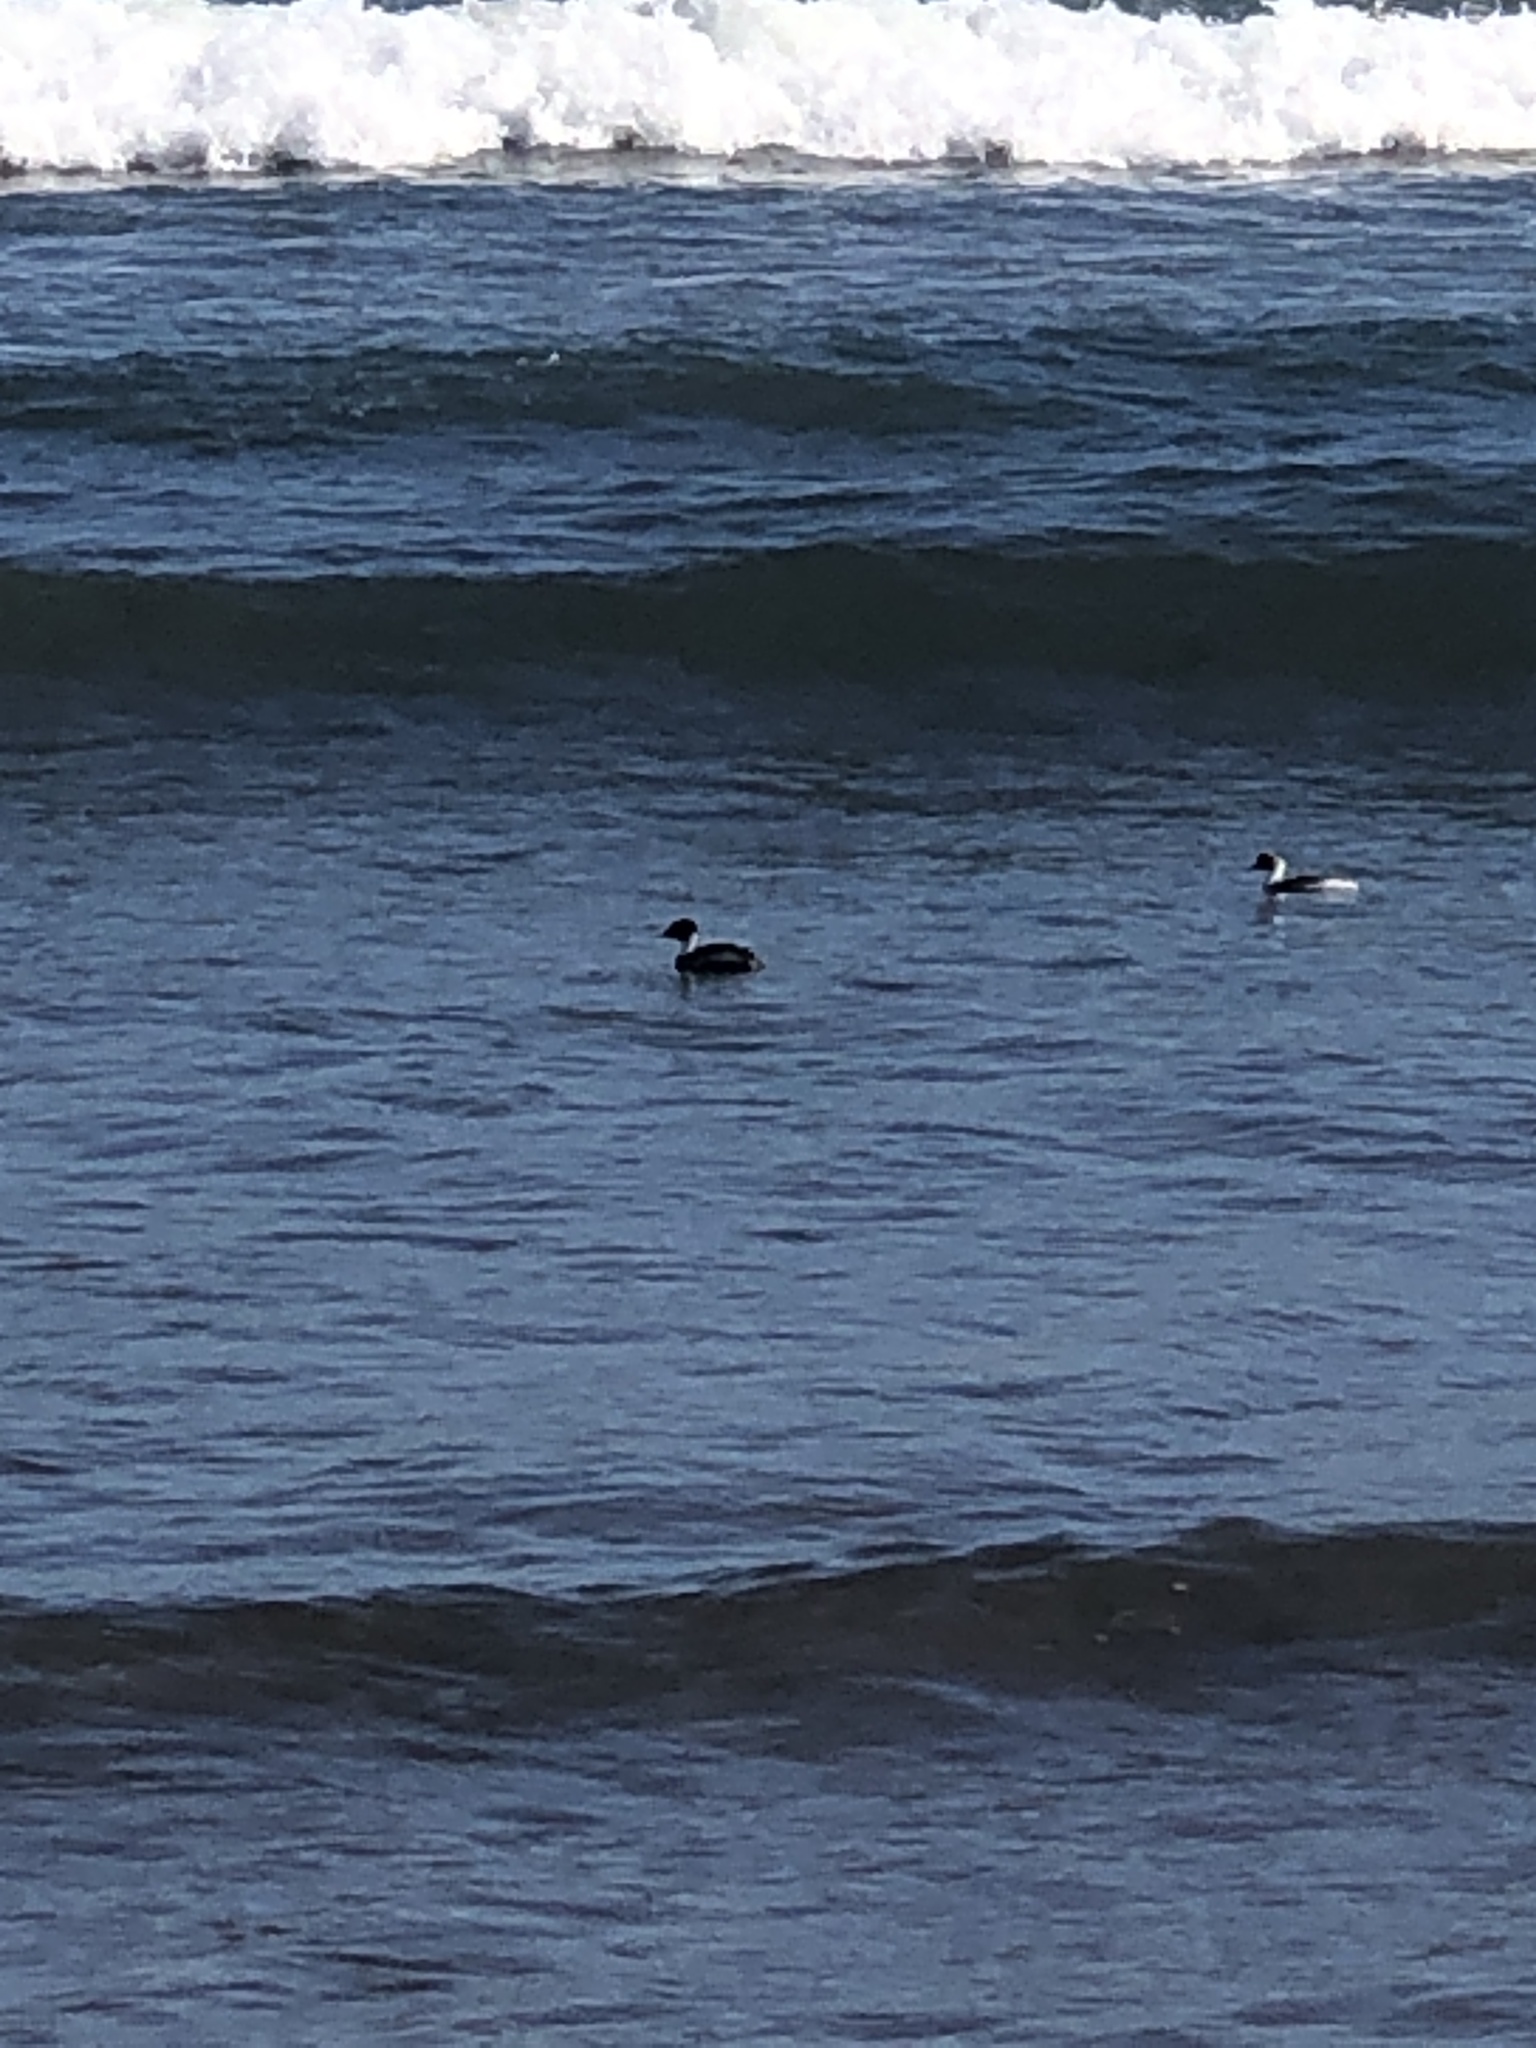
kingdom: Animalia
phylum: Chordata
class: Aves
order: Podicipediformes
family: Podicipedidae
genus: Podiceps
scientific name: Podiceps occipitalis
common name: Silvery grebe
